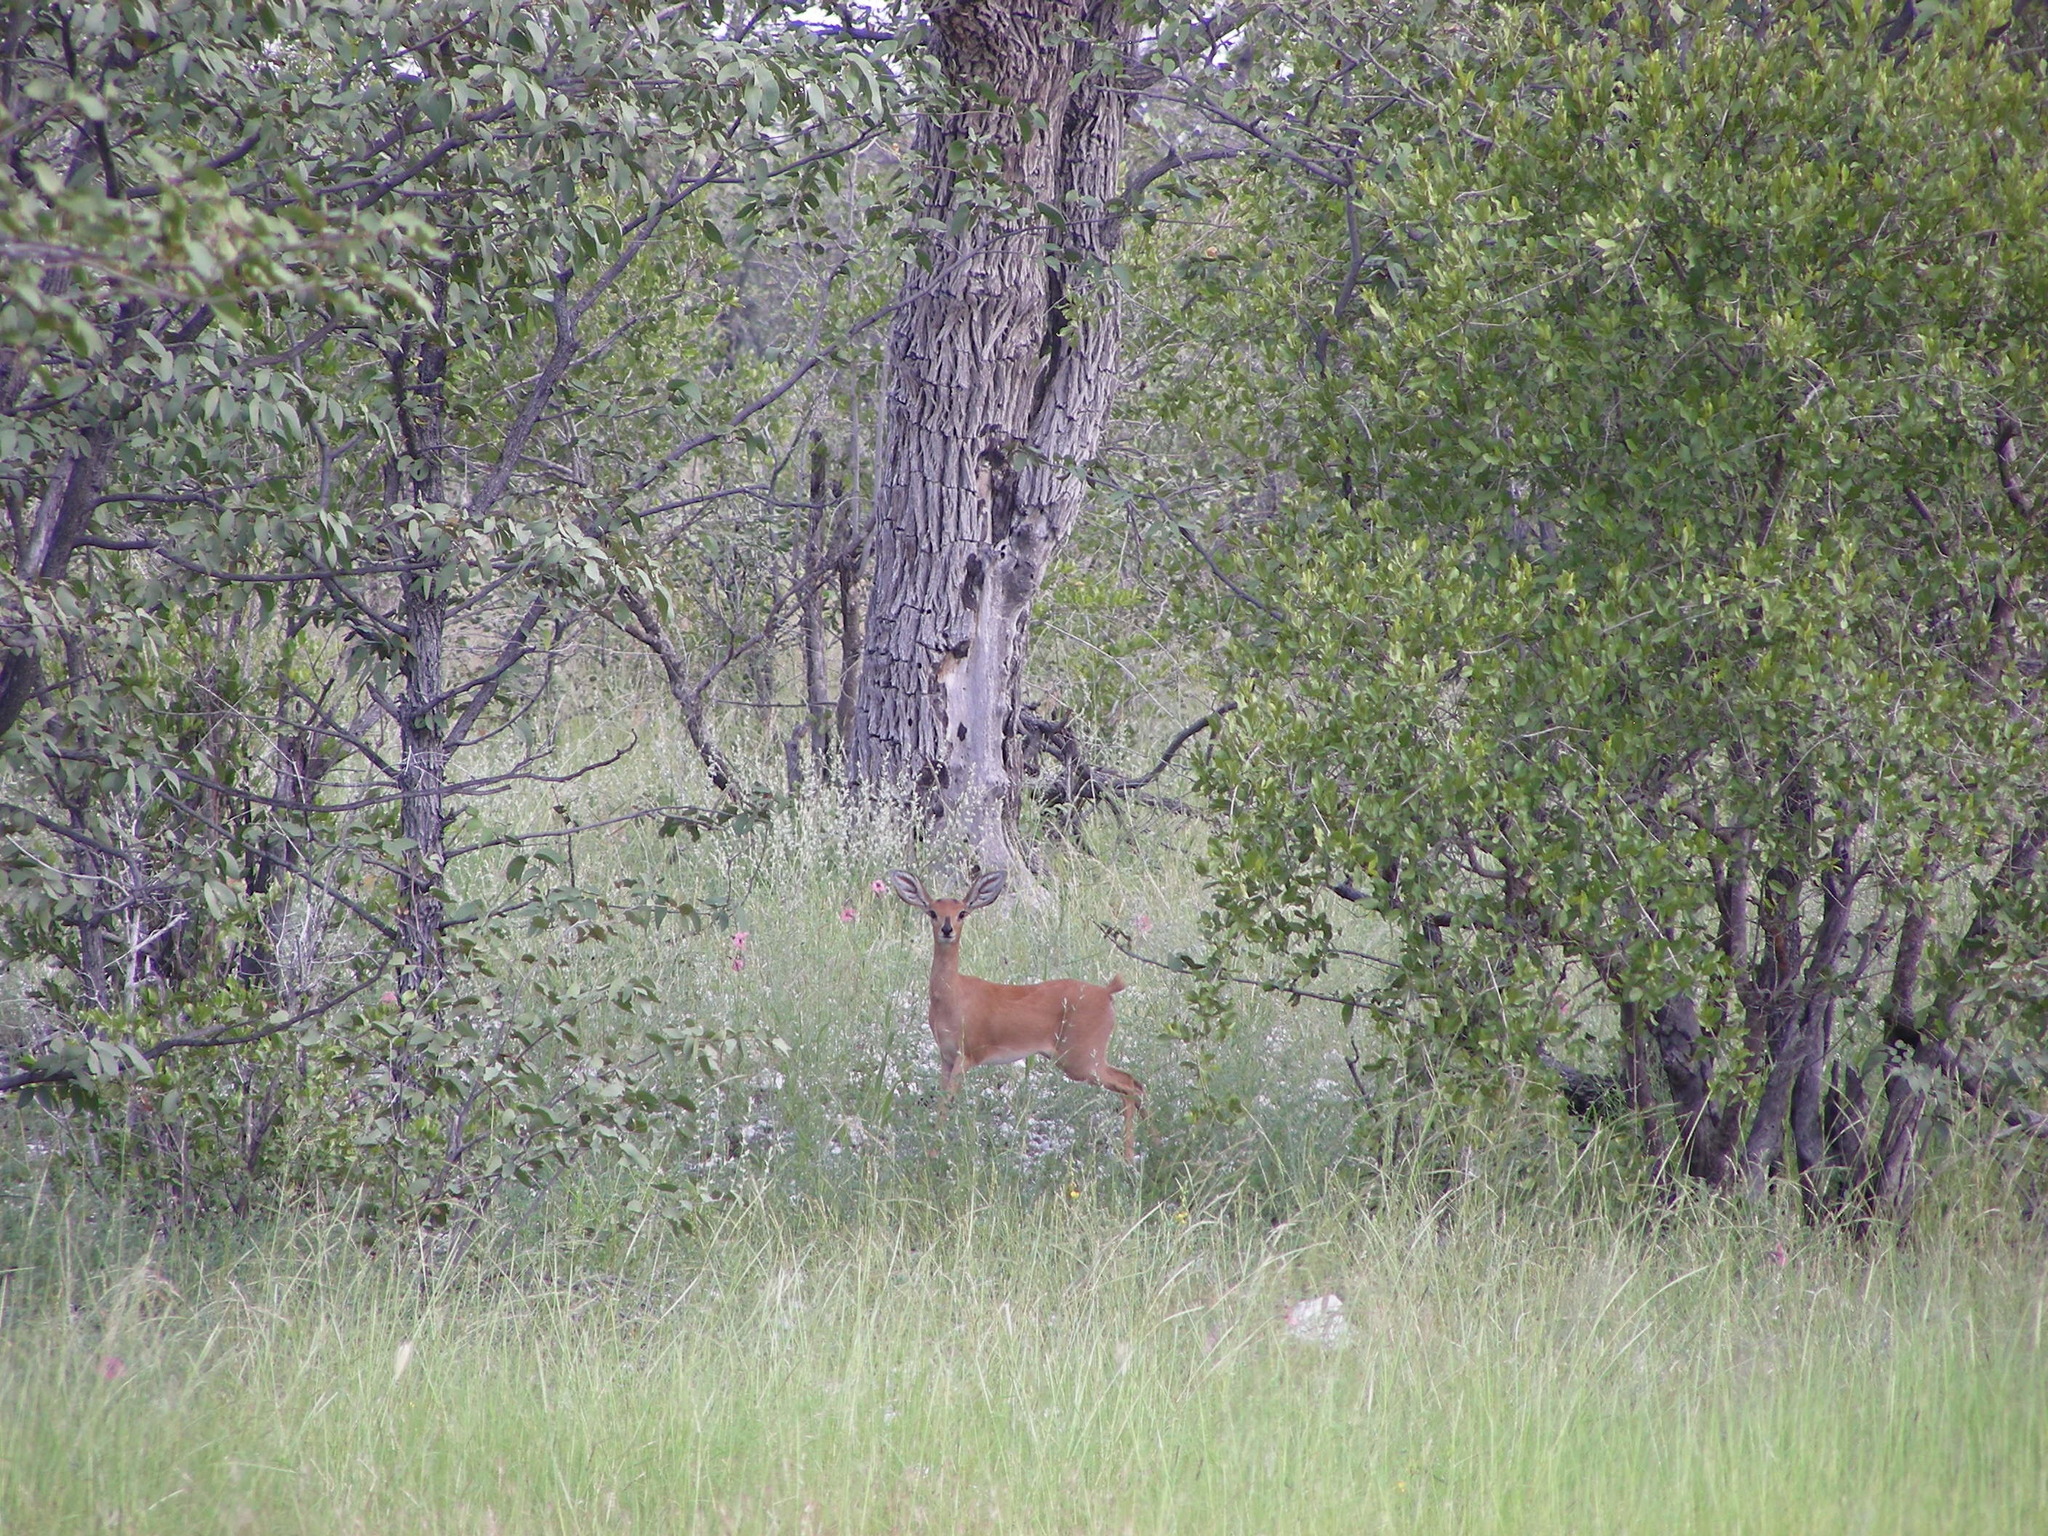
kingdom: Animalia
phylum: Chordata
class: Mammalia
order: Artiodactyla
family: Bovidae
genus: Raphicerus
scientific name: Raphicerus campestris
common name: Steenbok
